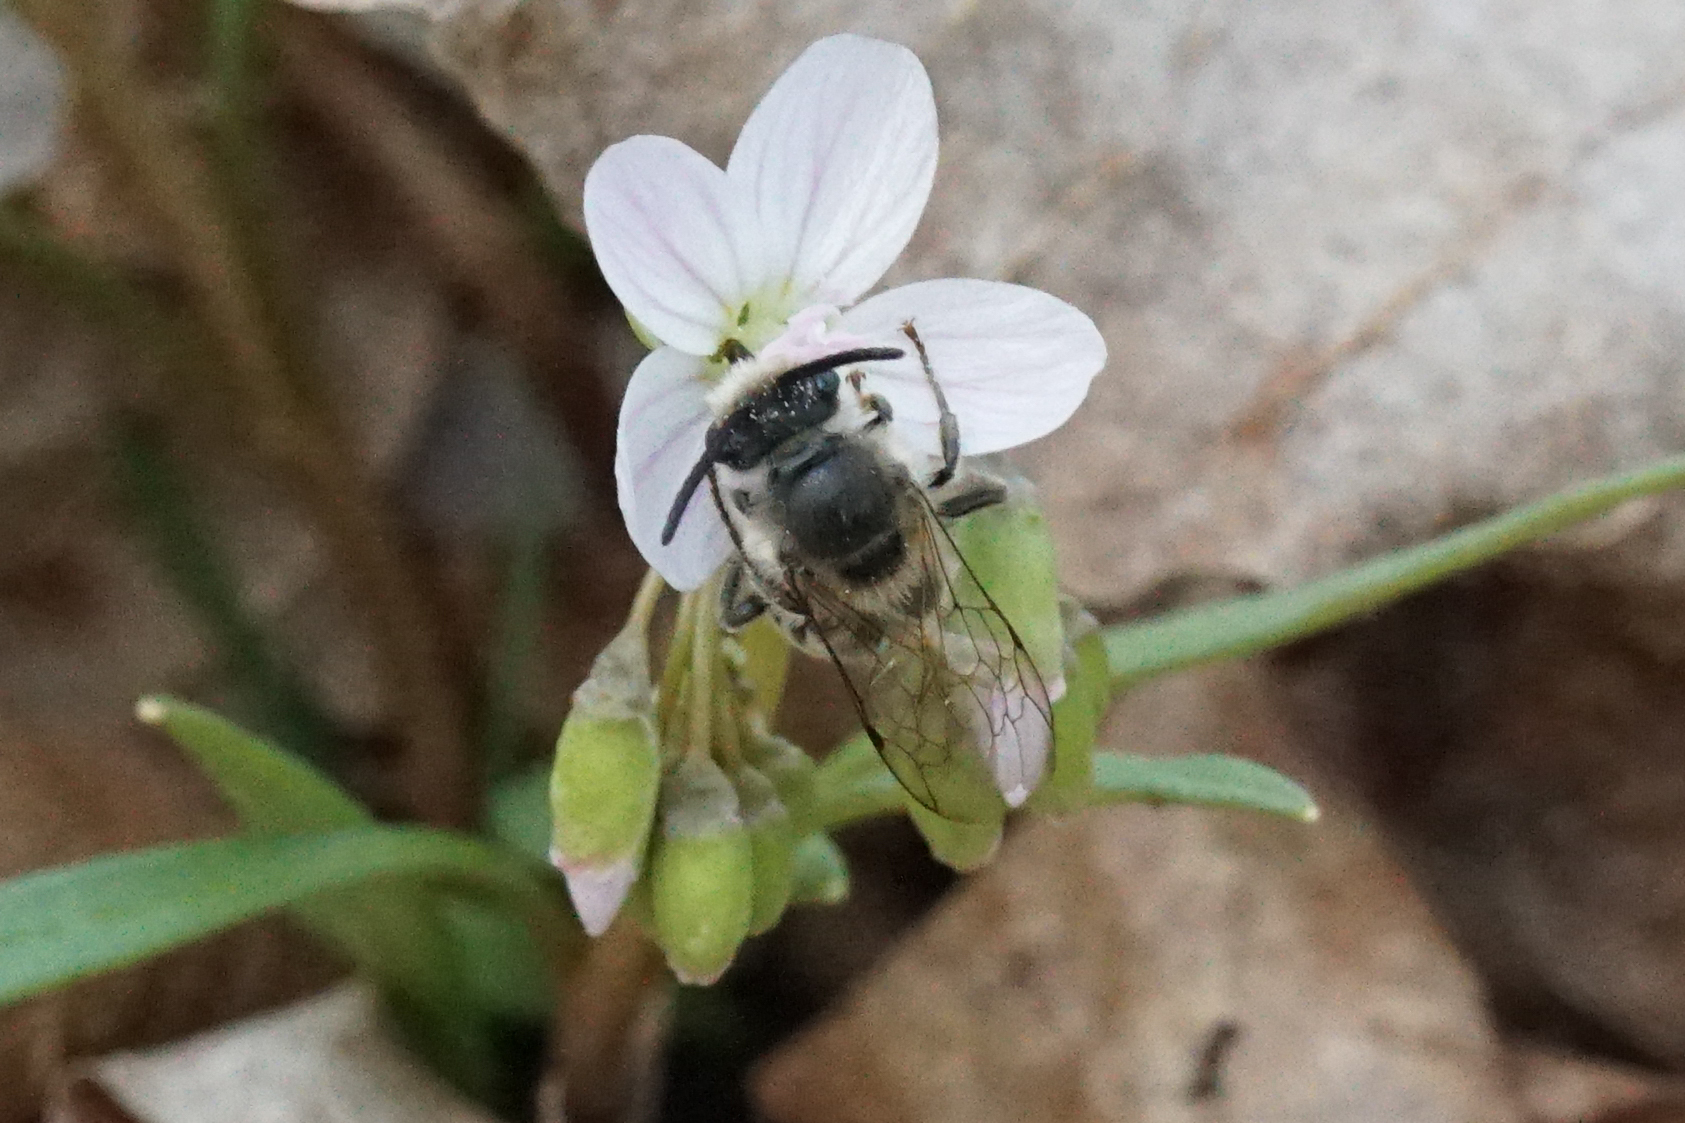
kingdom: Animalia
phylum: Arthropoda
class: Insecta
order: Hymenoptera
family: Colletidae
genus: Colletes
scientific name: Colletes inaequalis
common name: Unequal cellophane bee
